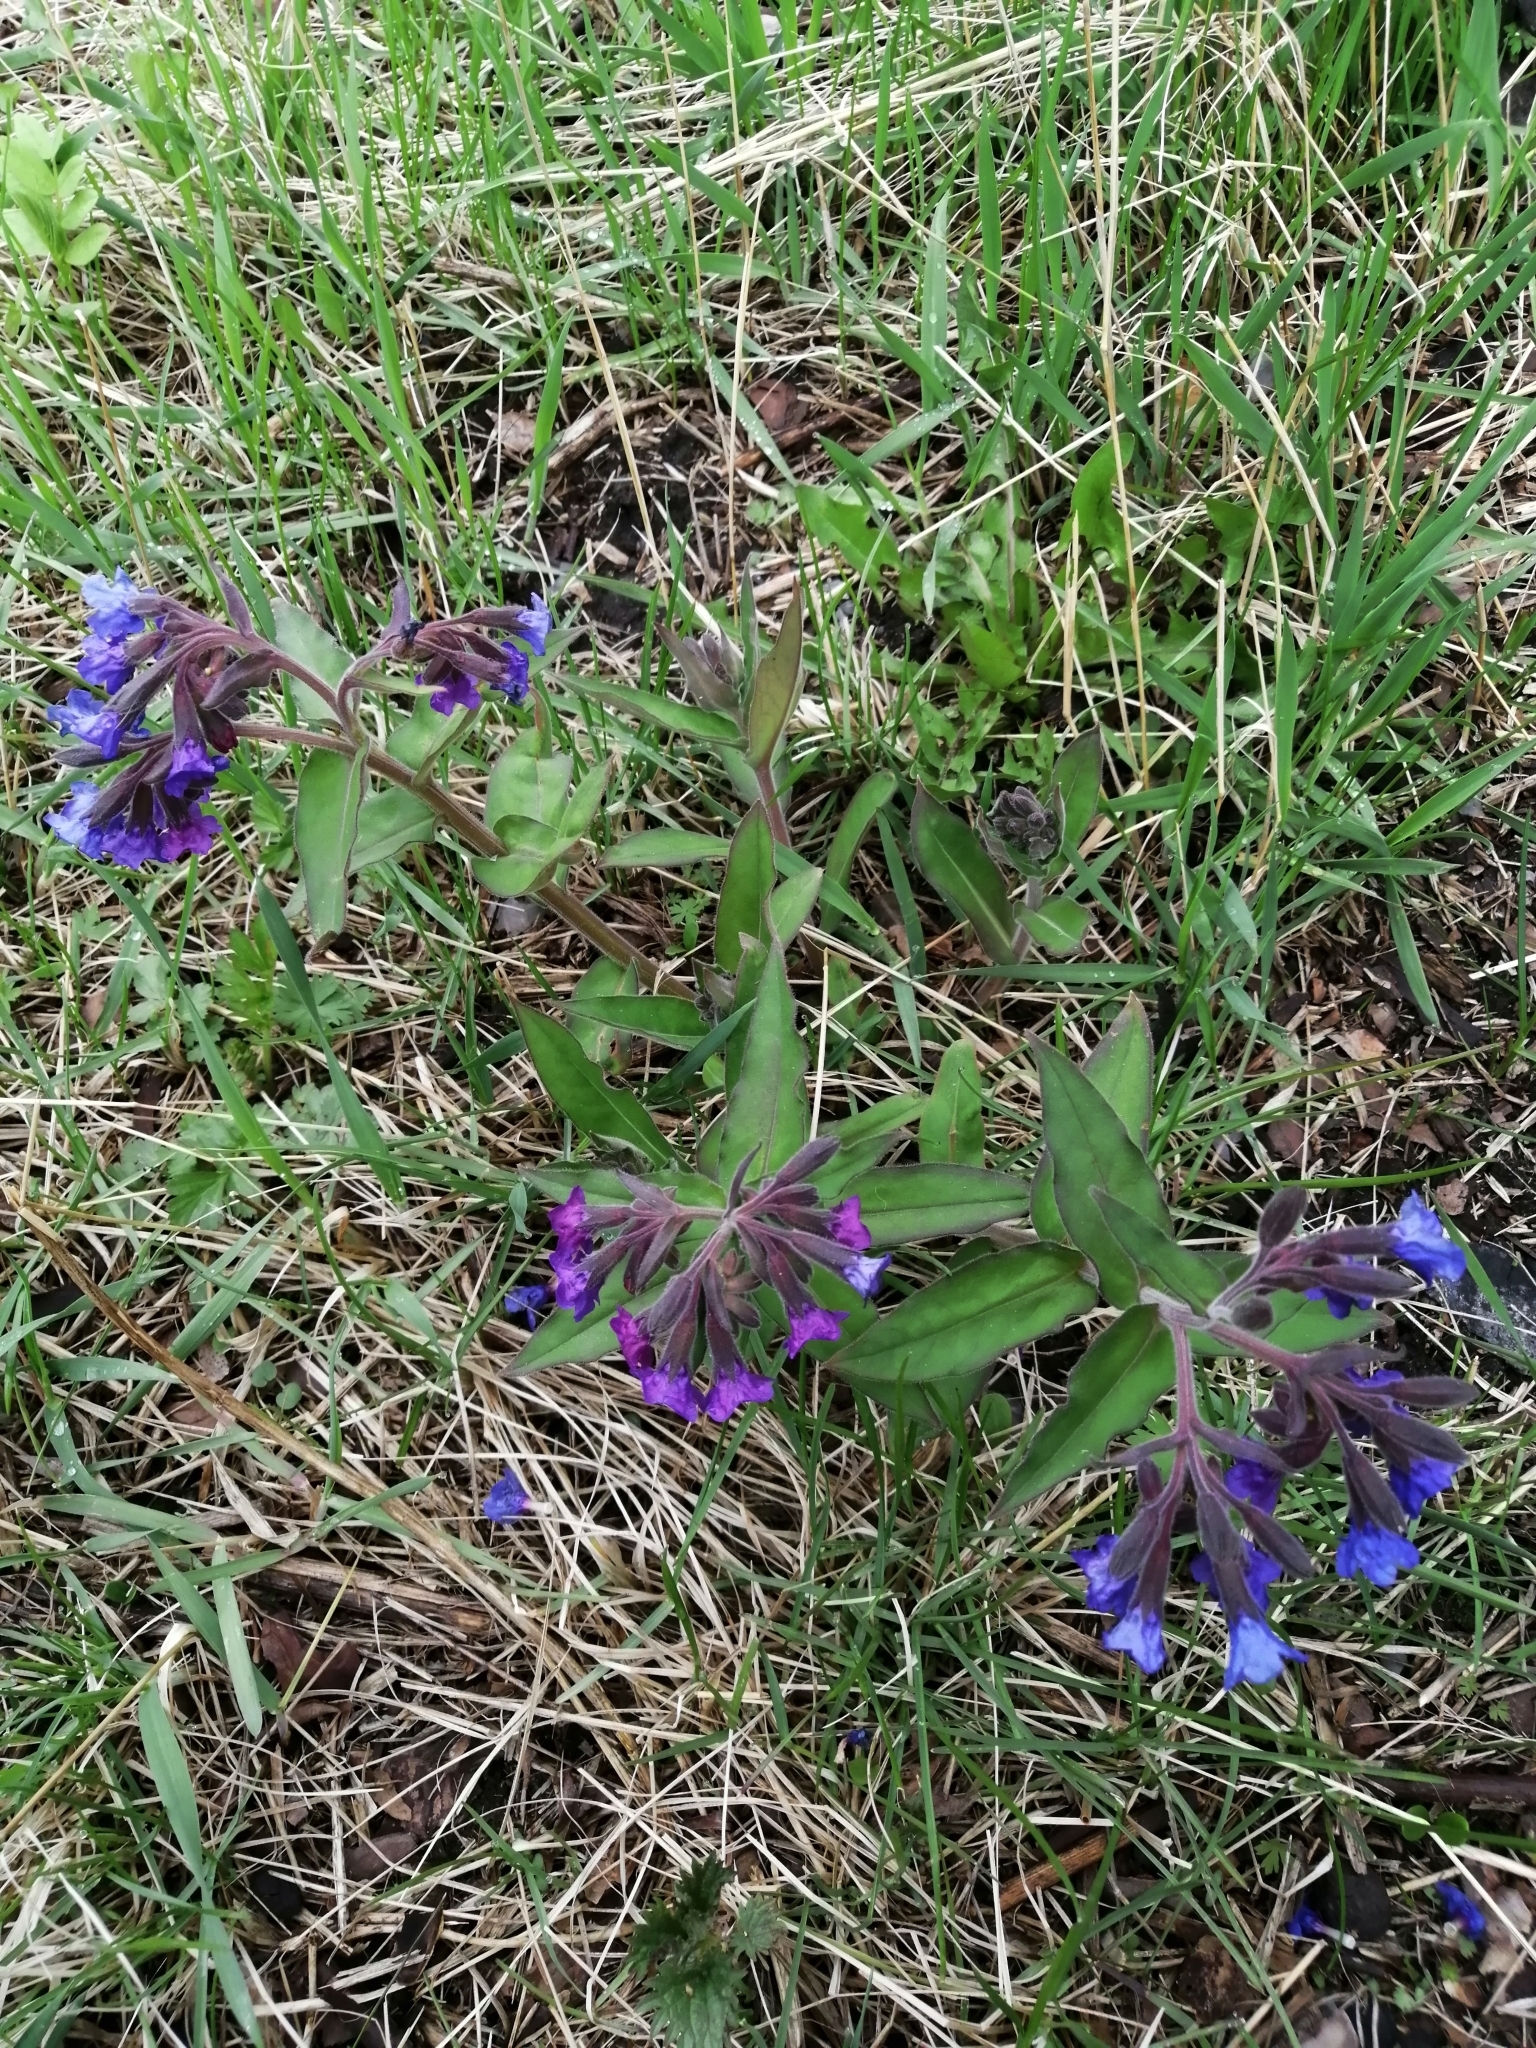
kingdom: Plantae
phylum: Tracheophyta
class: Magnoliopsida
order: Boraginales
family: Boraginaceae
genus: Pulmonaria
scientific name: Pulmonaria mollis
